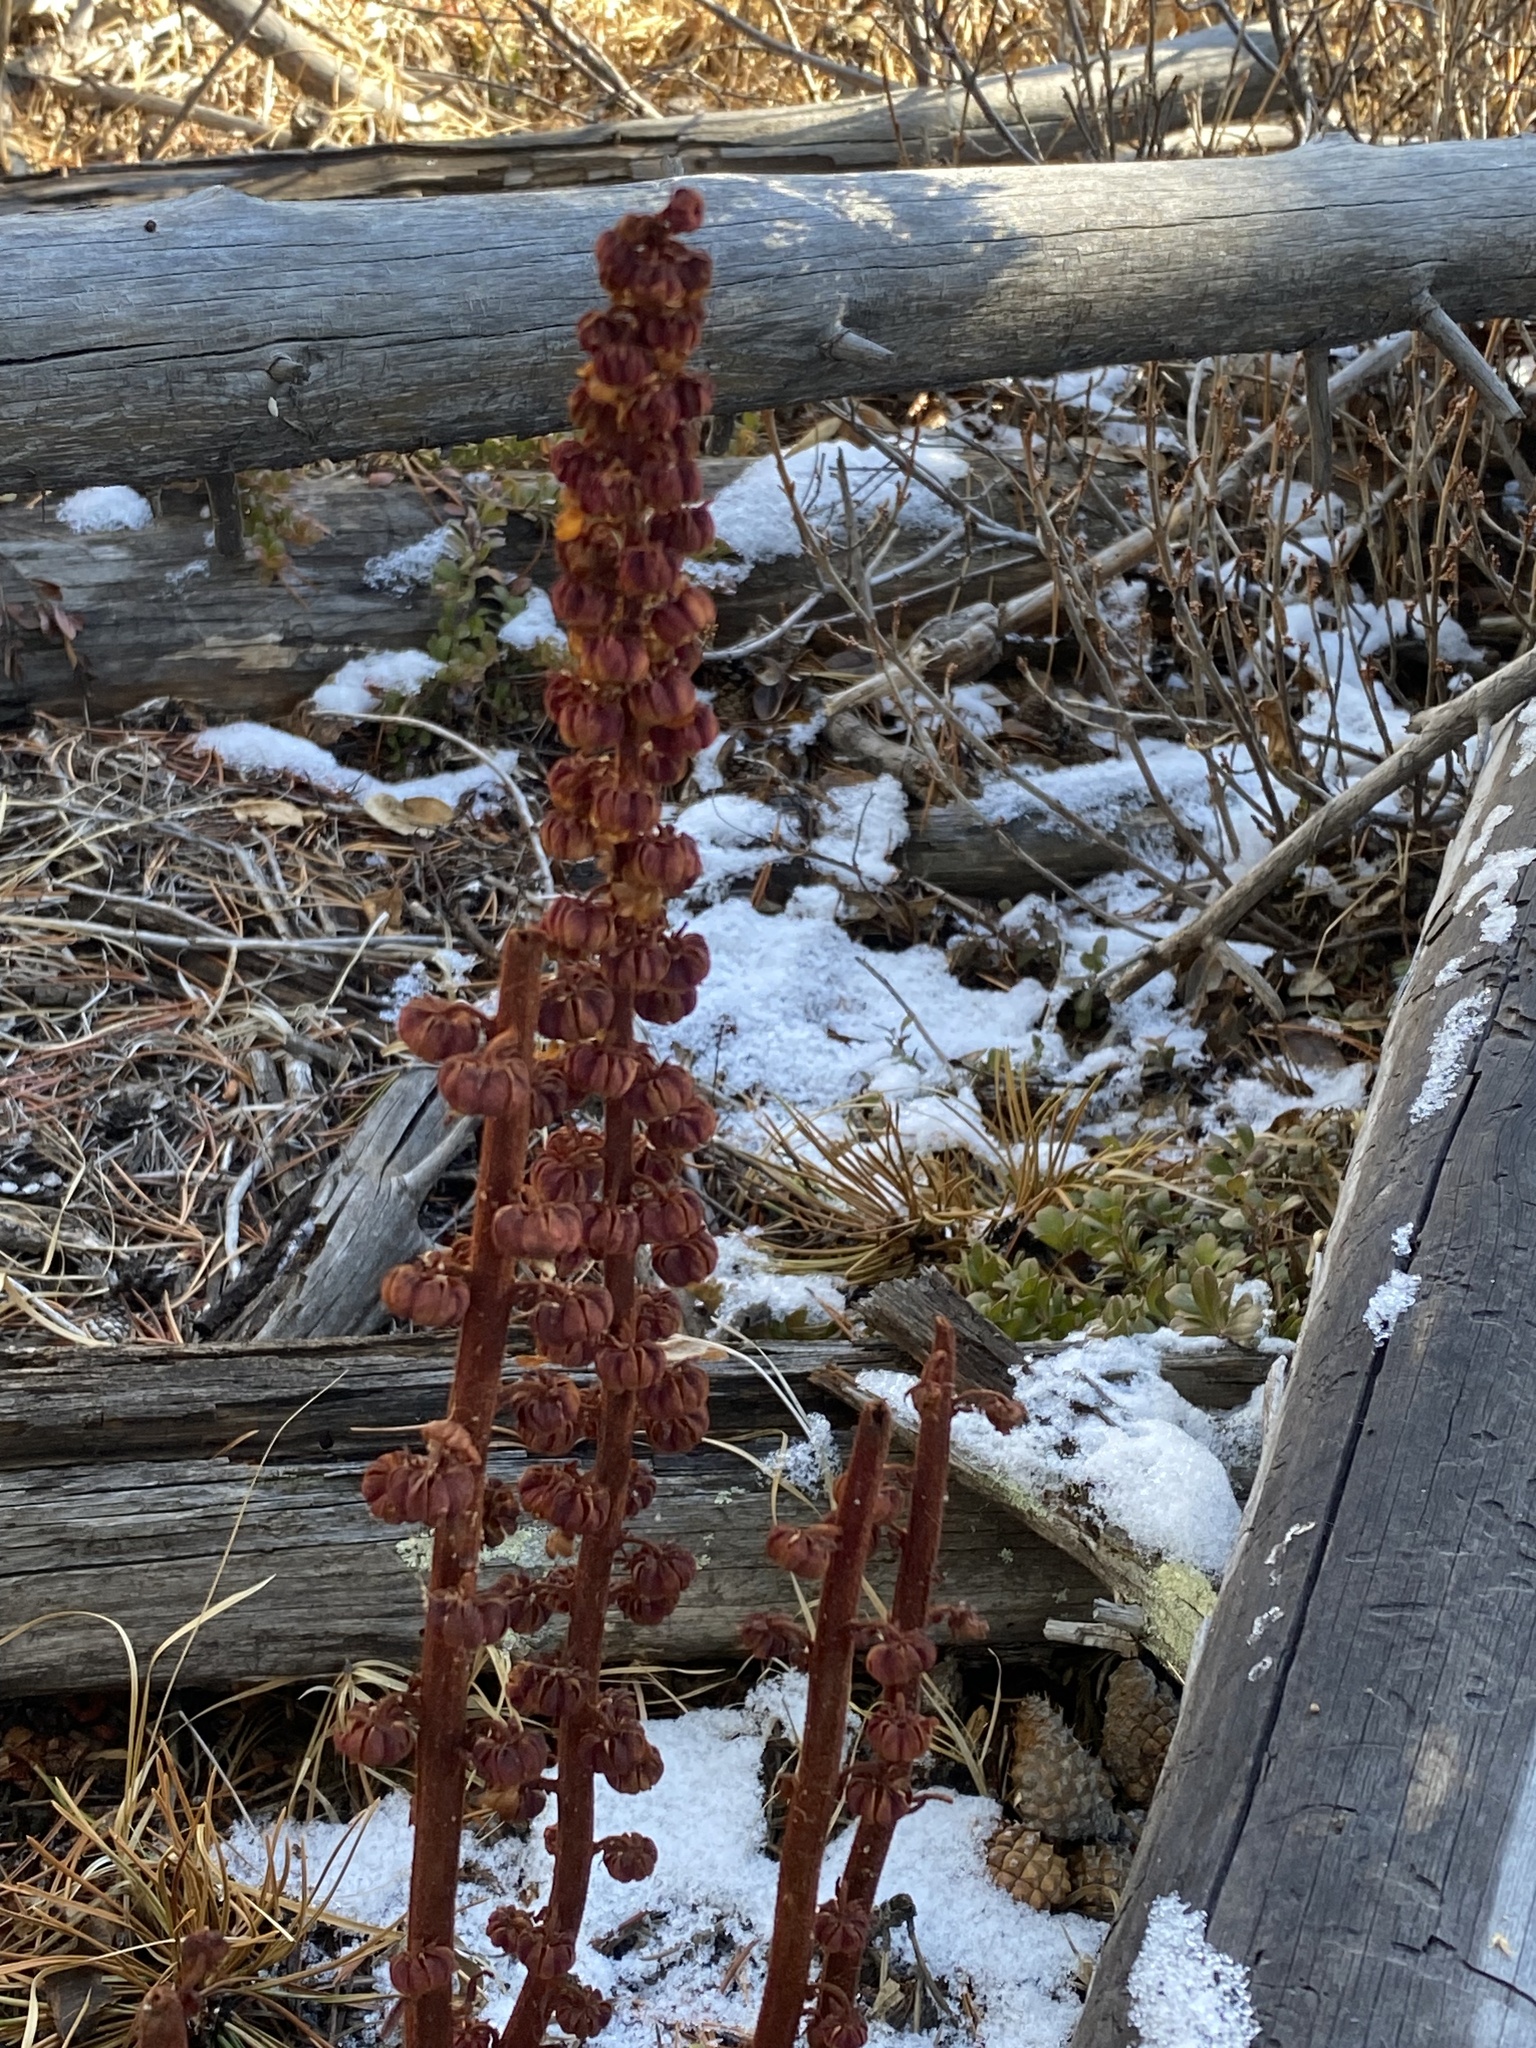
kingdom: Plantae
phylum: Tracheophyta
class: Magnoliopsida
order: Ericales
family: Ericaceae
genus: Pterospora
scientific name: Pterospora andromedea
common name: Giant bird's-nest
